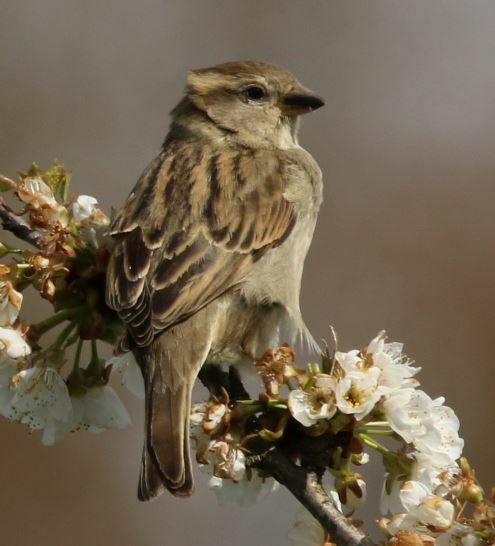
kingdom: Animalia
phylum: Chordata
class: Aves
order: Passeriformes
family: Passeridae
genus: Passer
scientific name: Passer domesticus
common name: House sparrow
